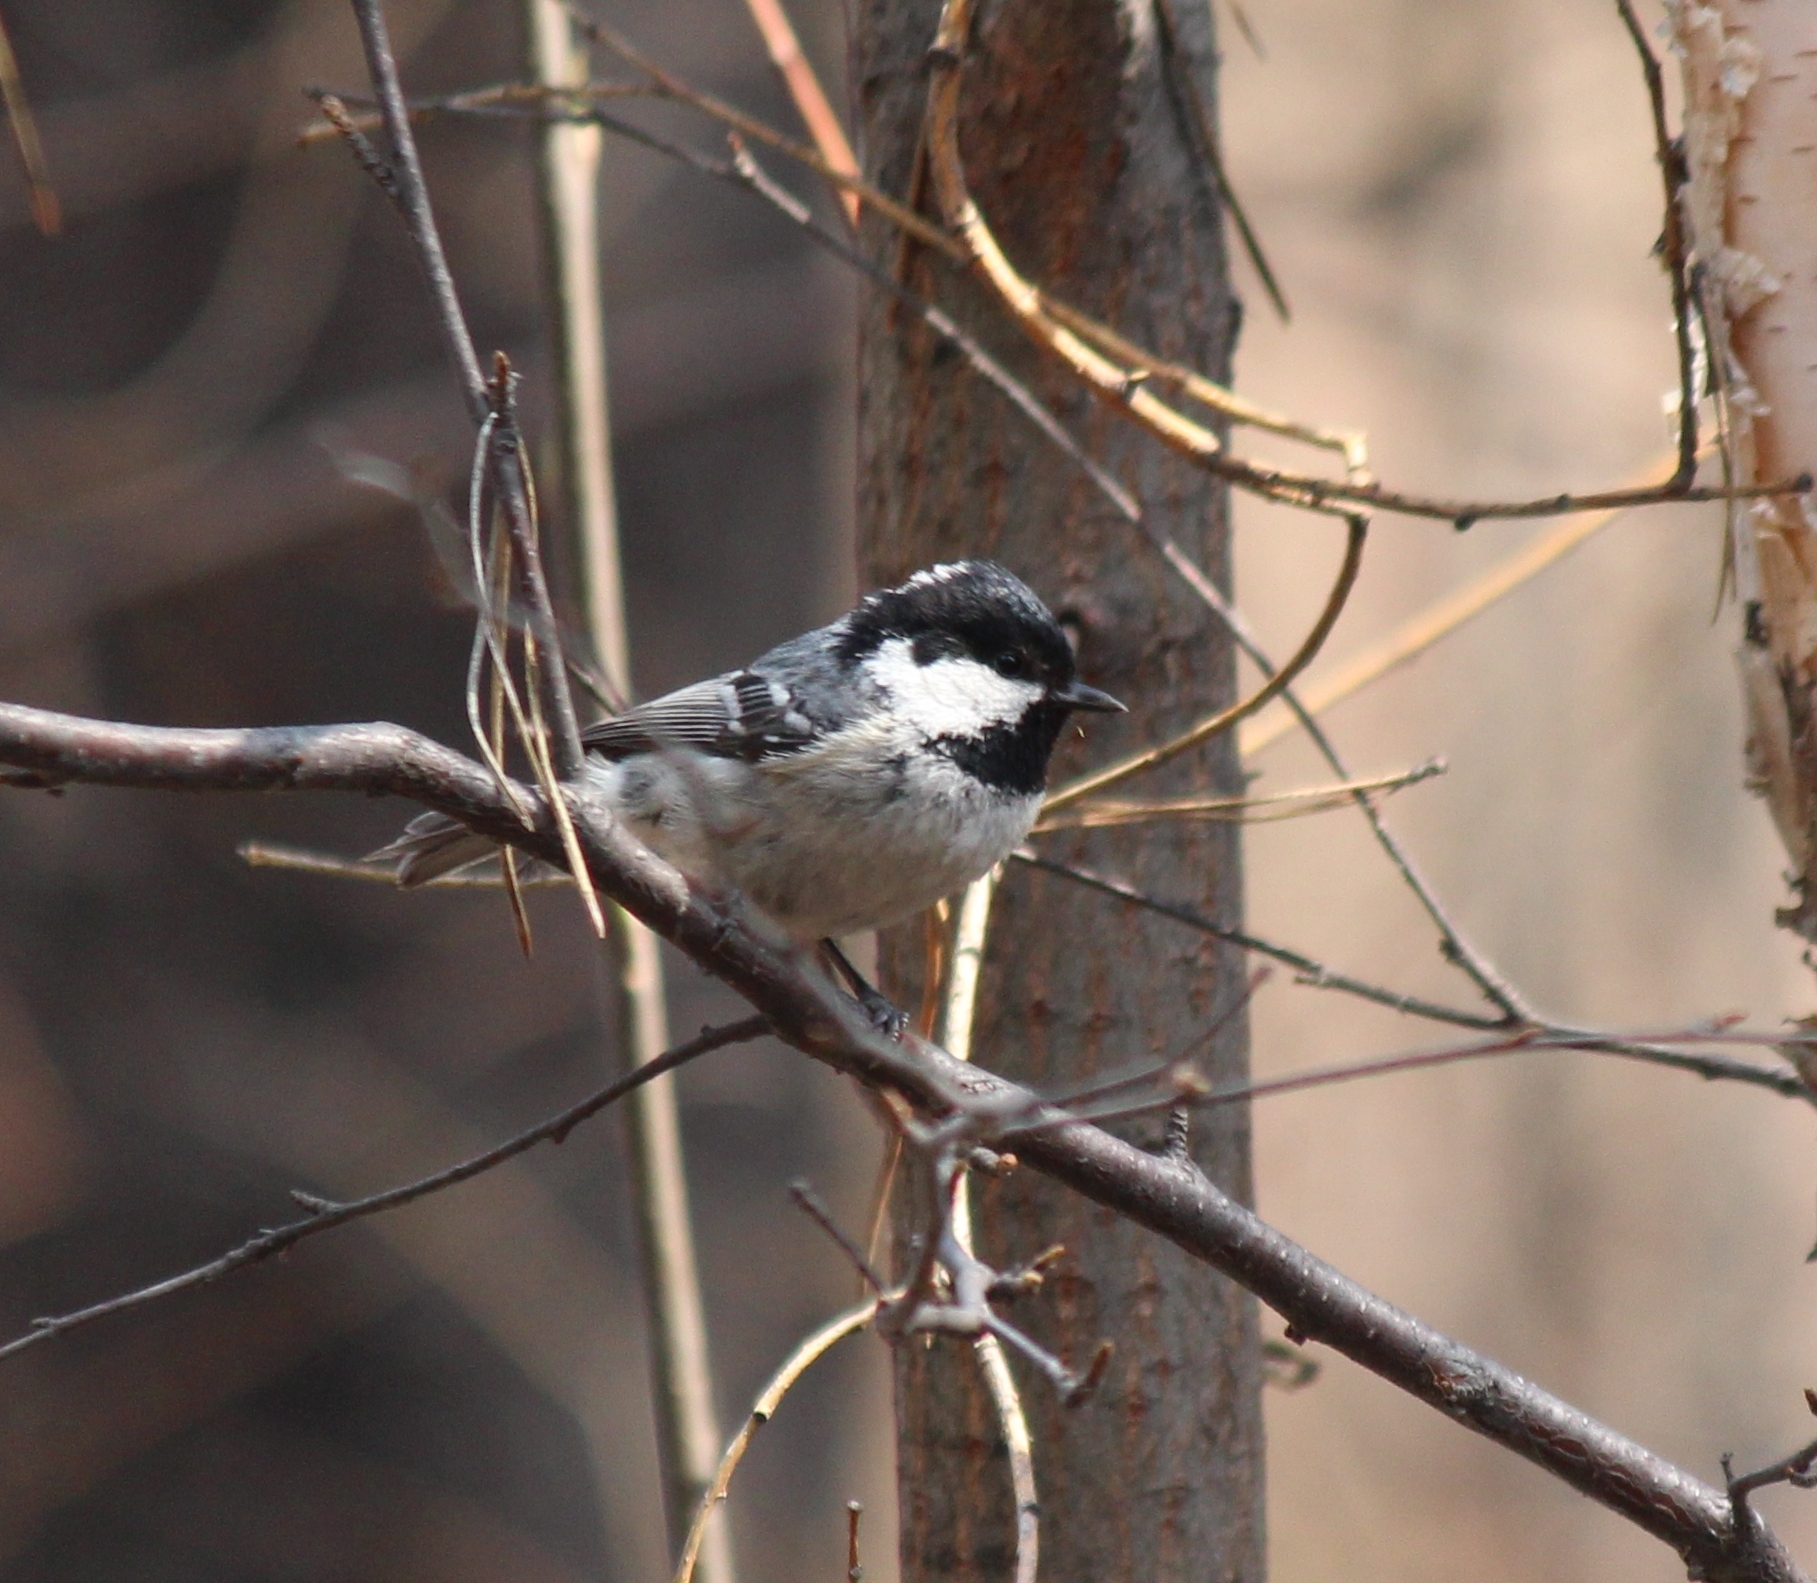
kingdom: Animalia
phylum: Chordata
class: Aves
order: Passeriformes
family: Paridae
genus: Periparus
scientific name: Periparus ater
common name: Coal tit
